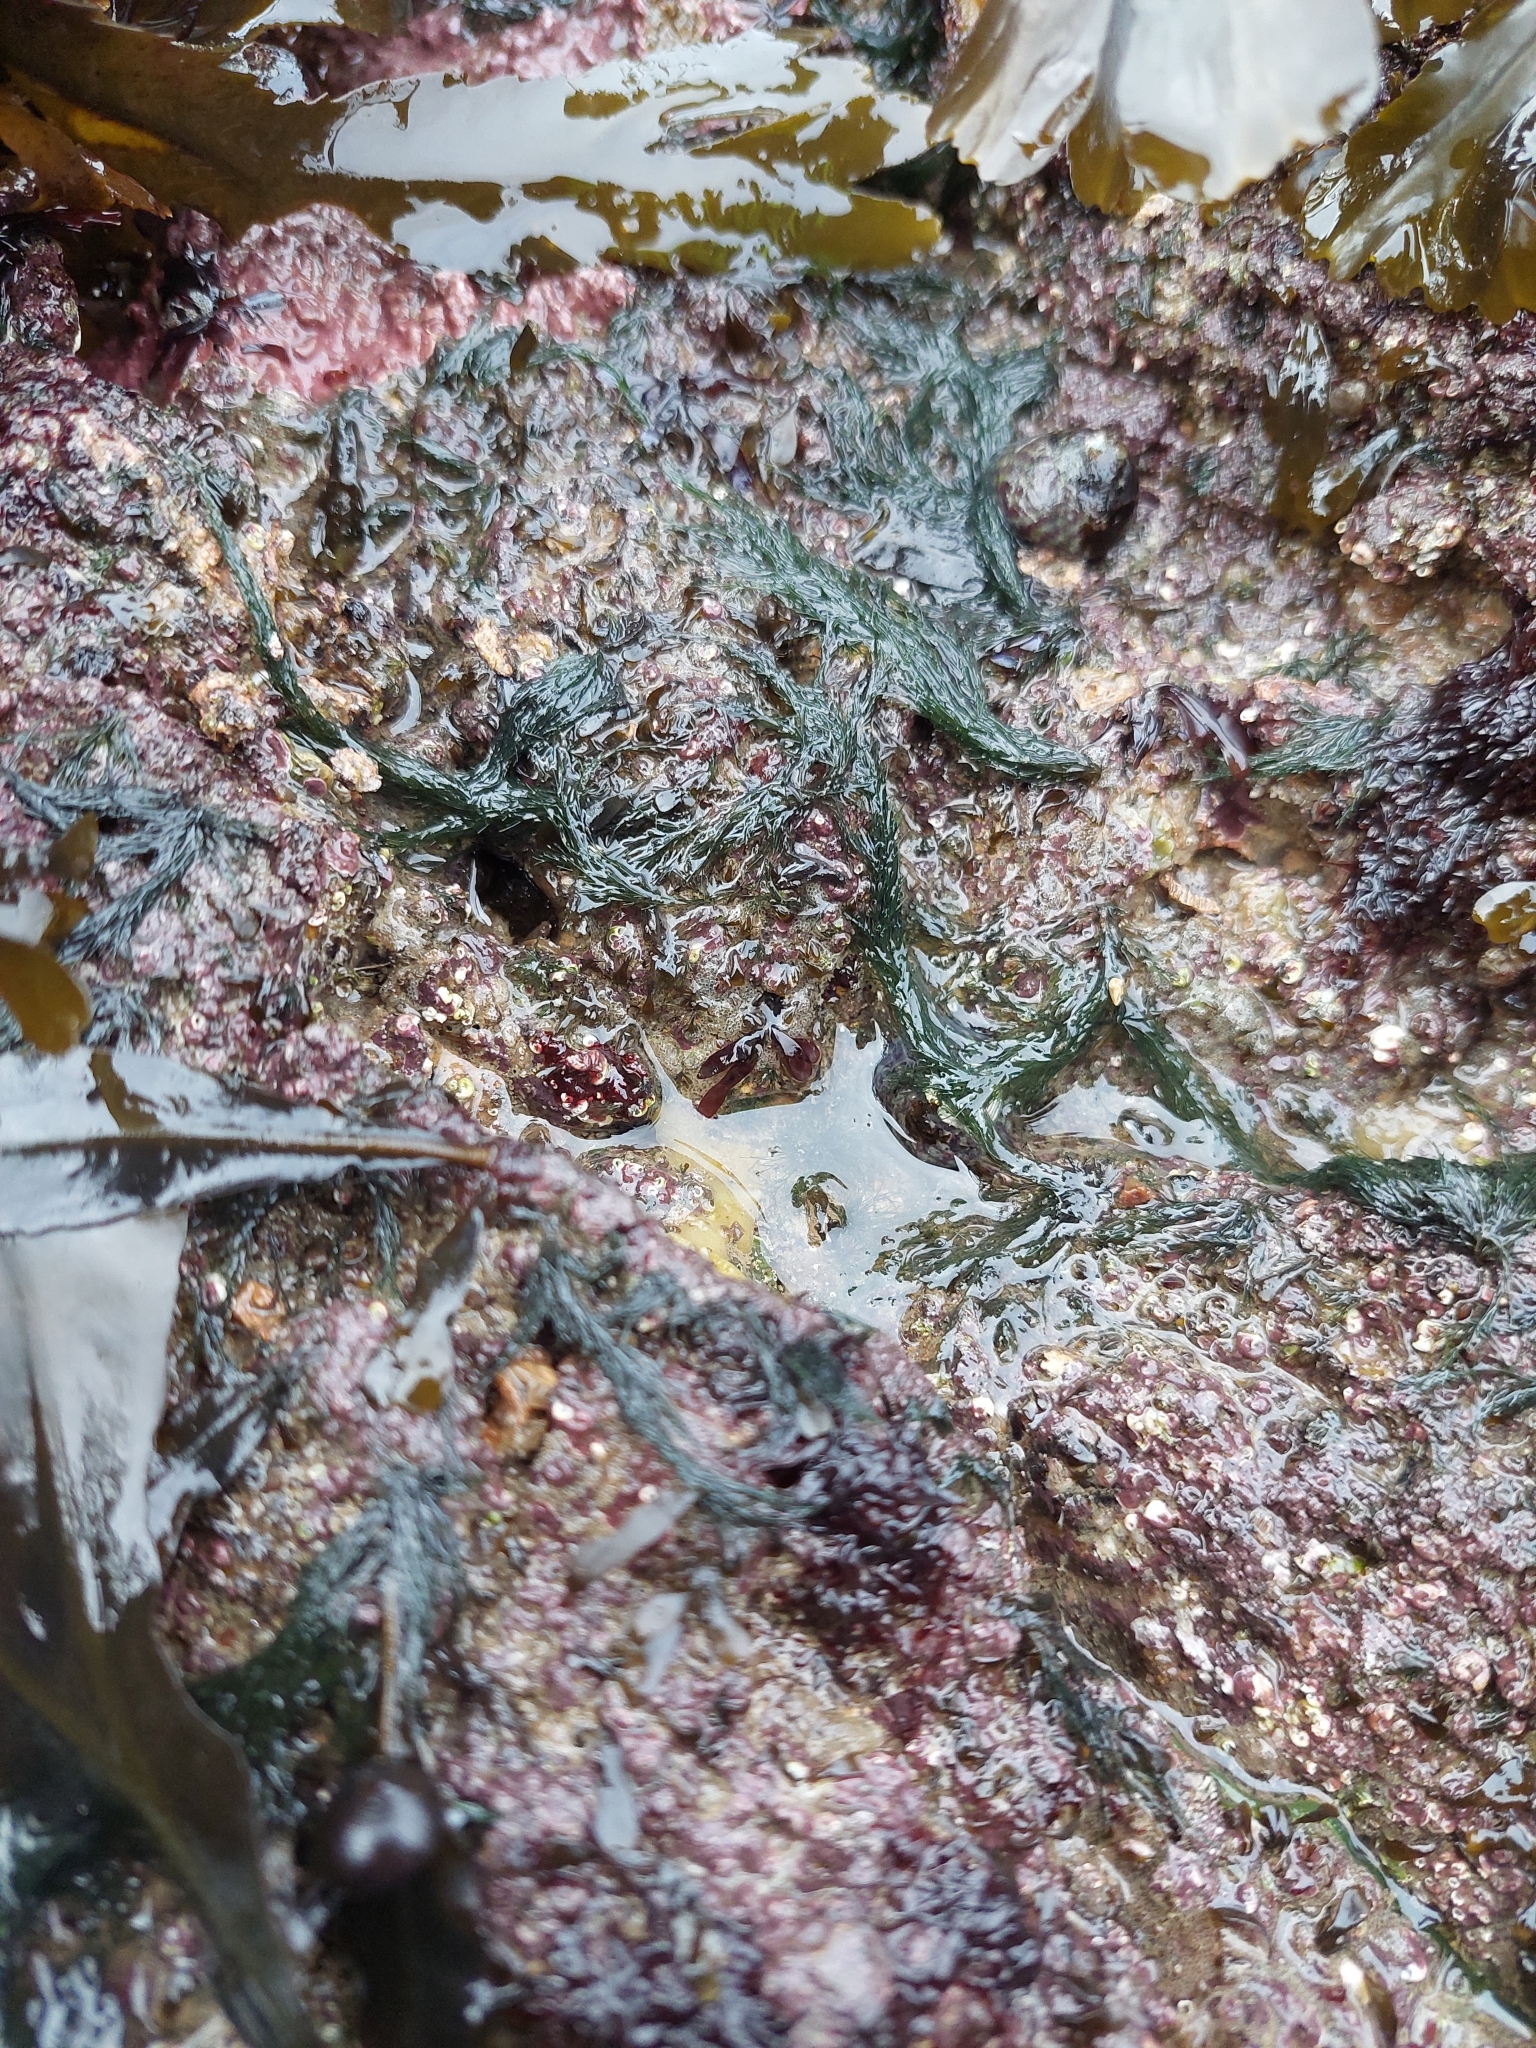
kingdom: Plantae
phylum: Chlorophyta
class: Ulvophyceae
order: Cladophorales
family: Cladophoraceae
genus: Cladophora
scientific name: Cladophora rupestris
